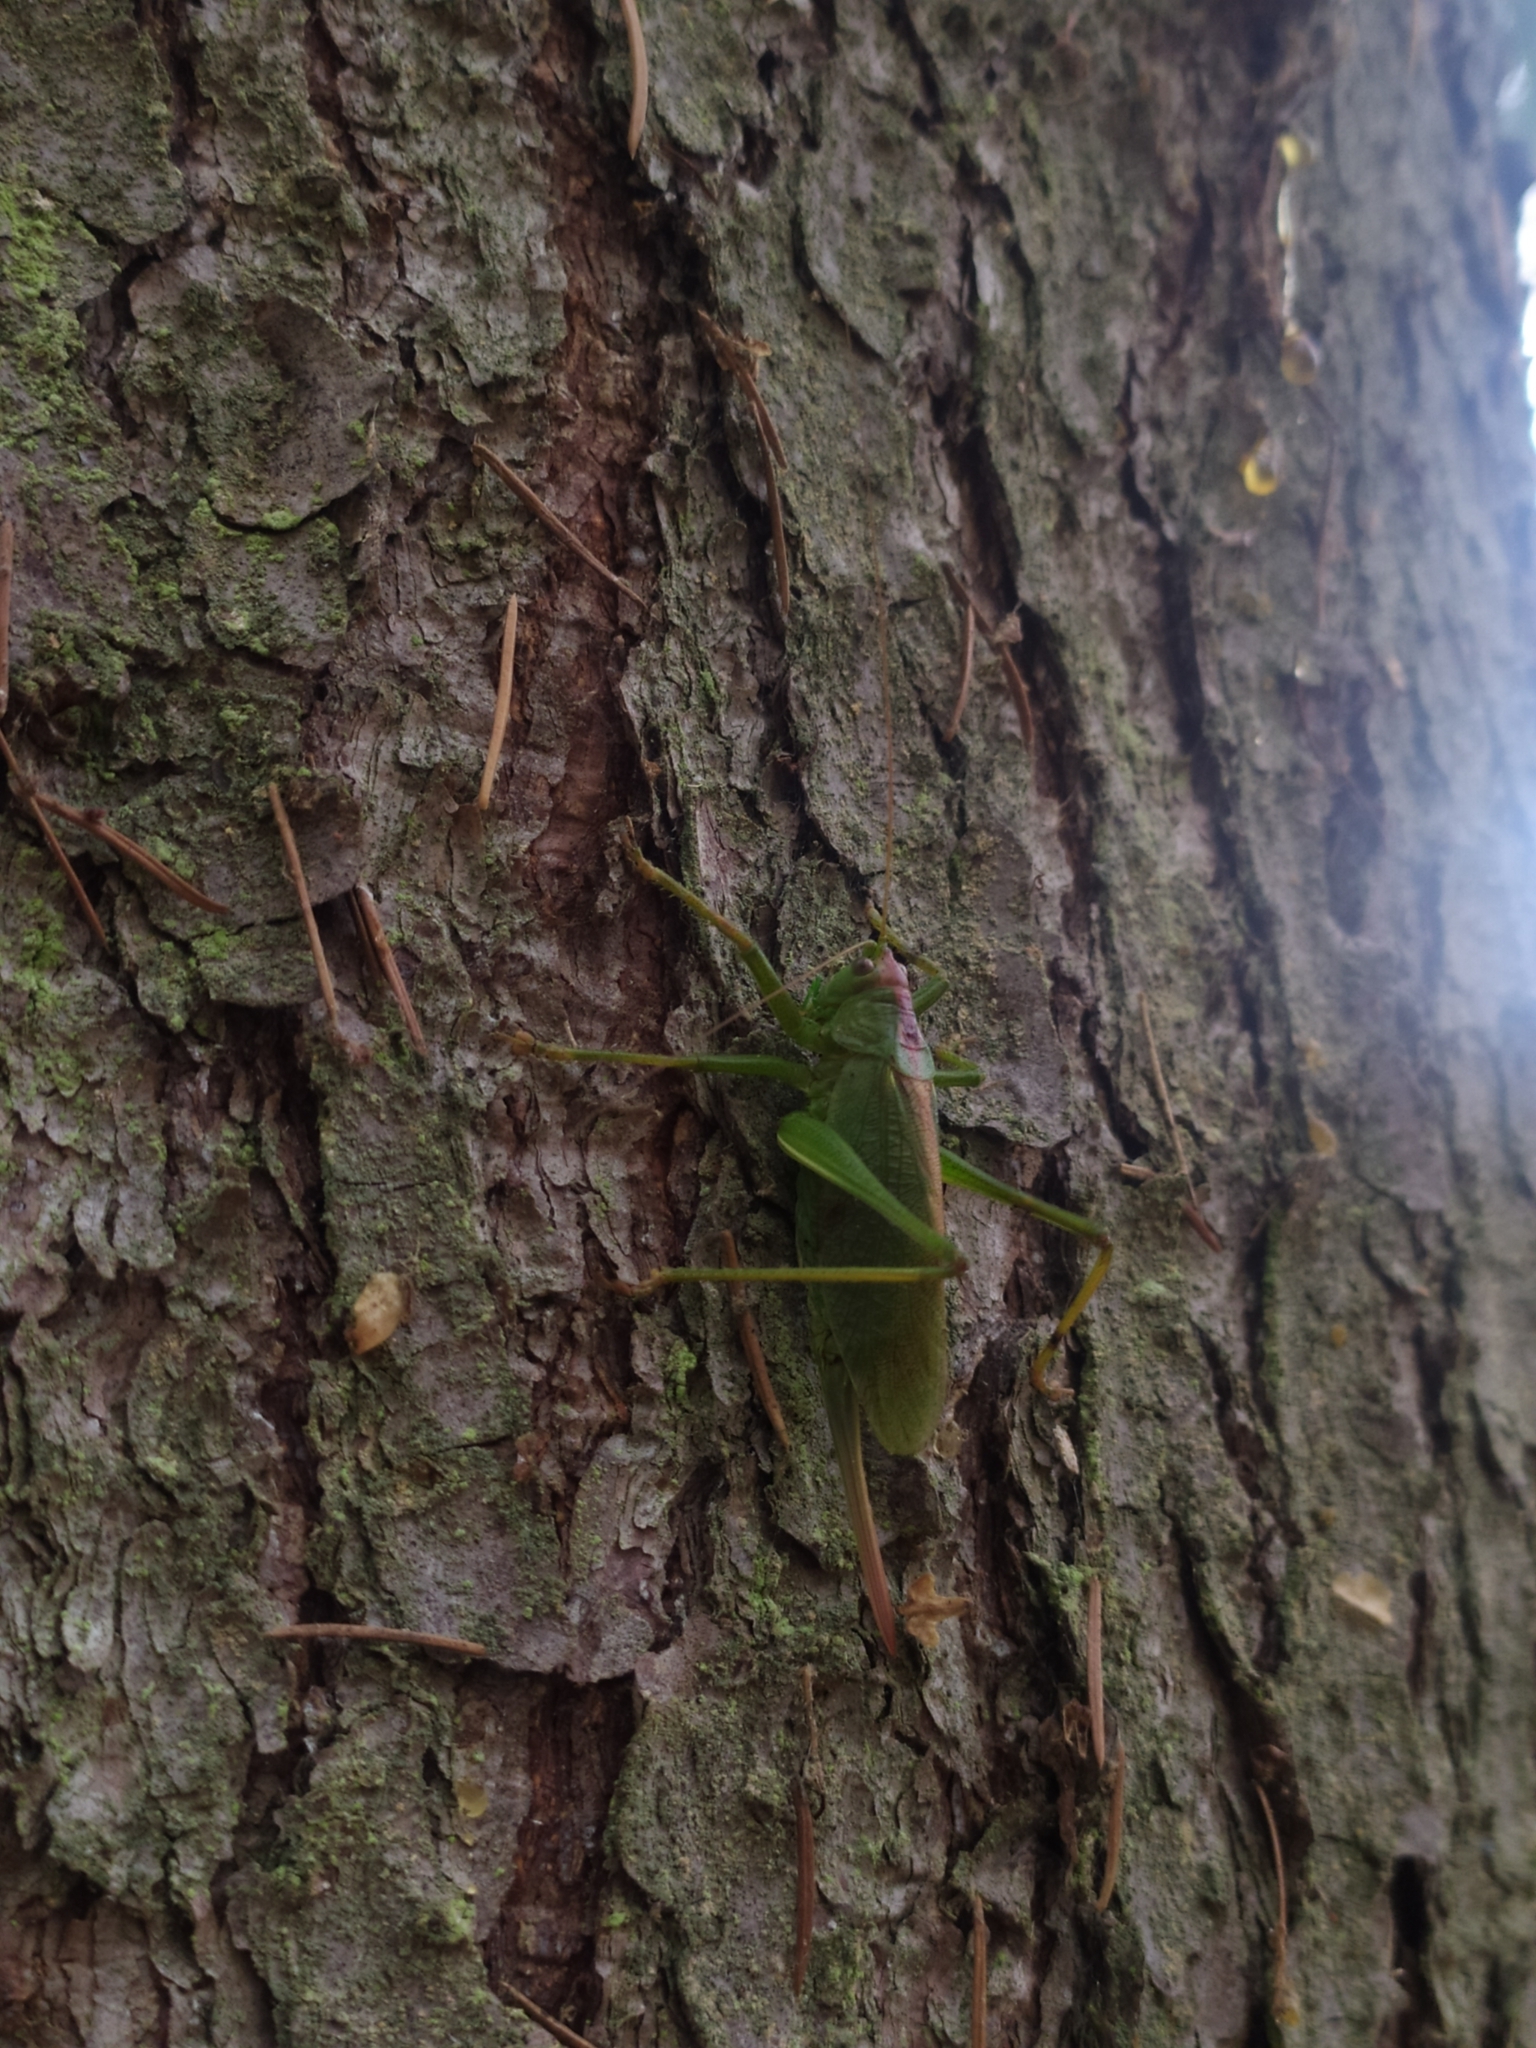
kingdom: Animalia
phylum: Arthropoda
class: Insecta
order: Orthoptera
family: Tettigoniidae
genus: Tettigonia
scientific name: Tettigonia cantans
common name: Upland green bush-cricket
